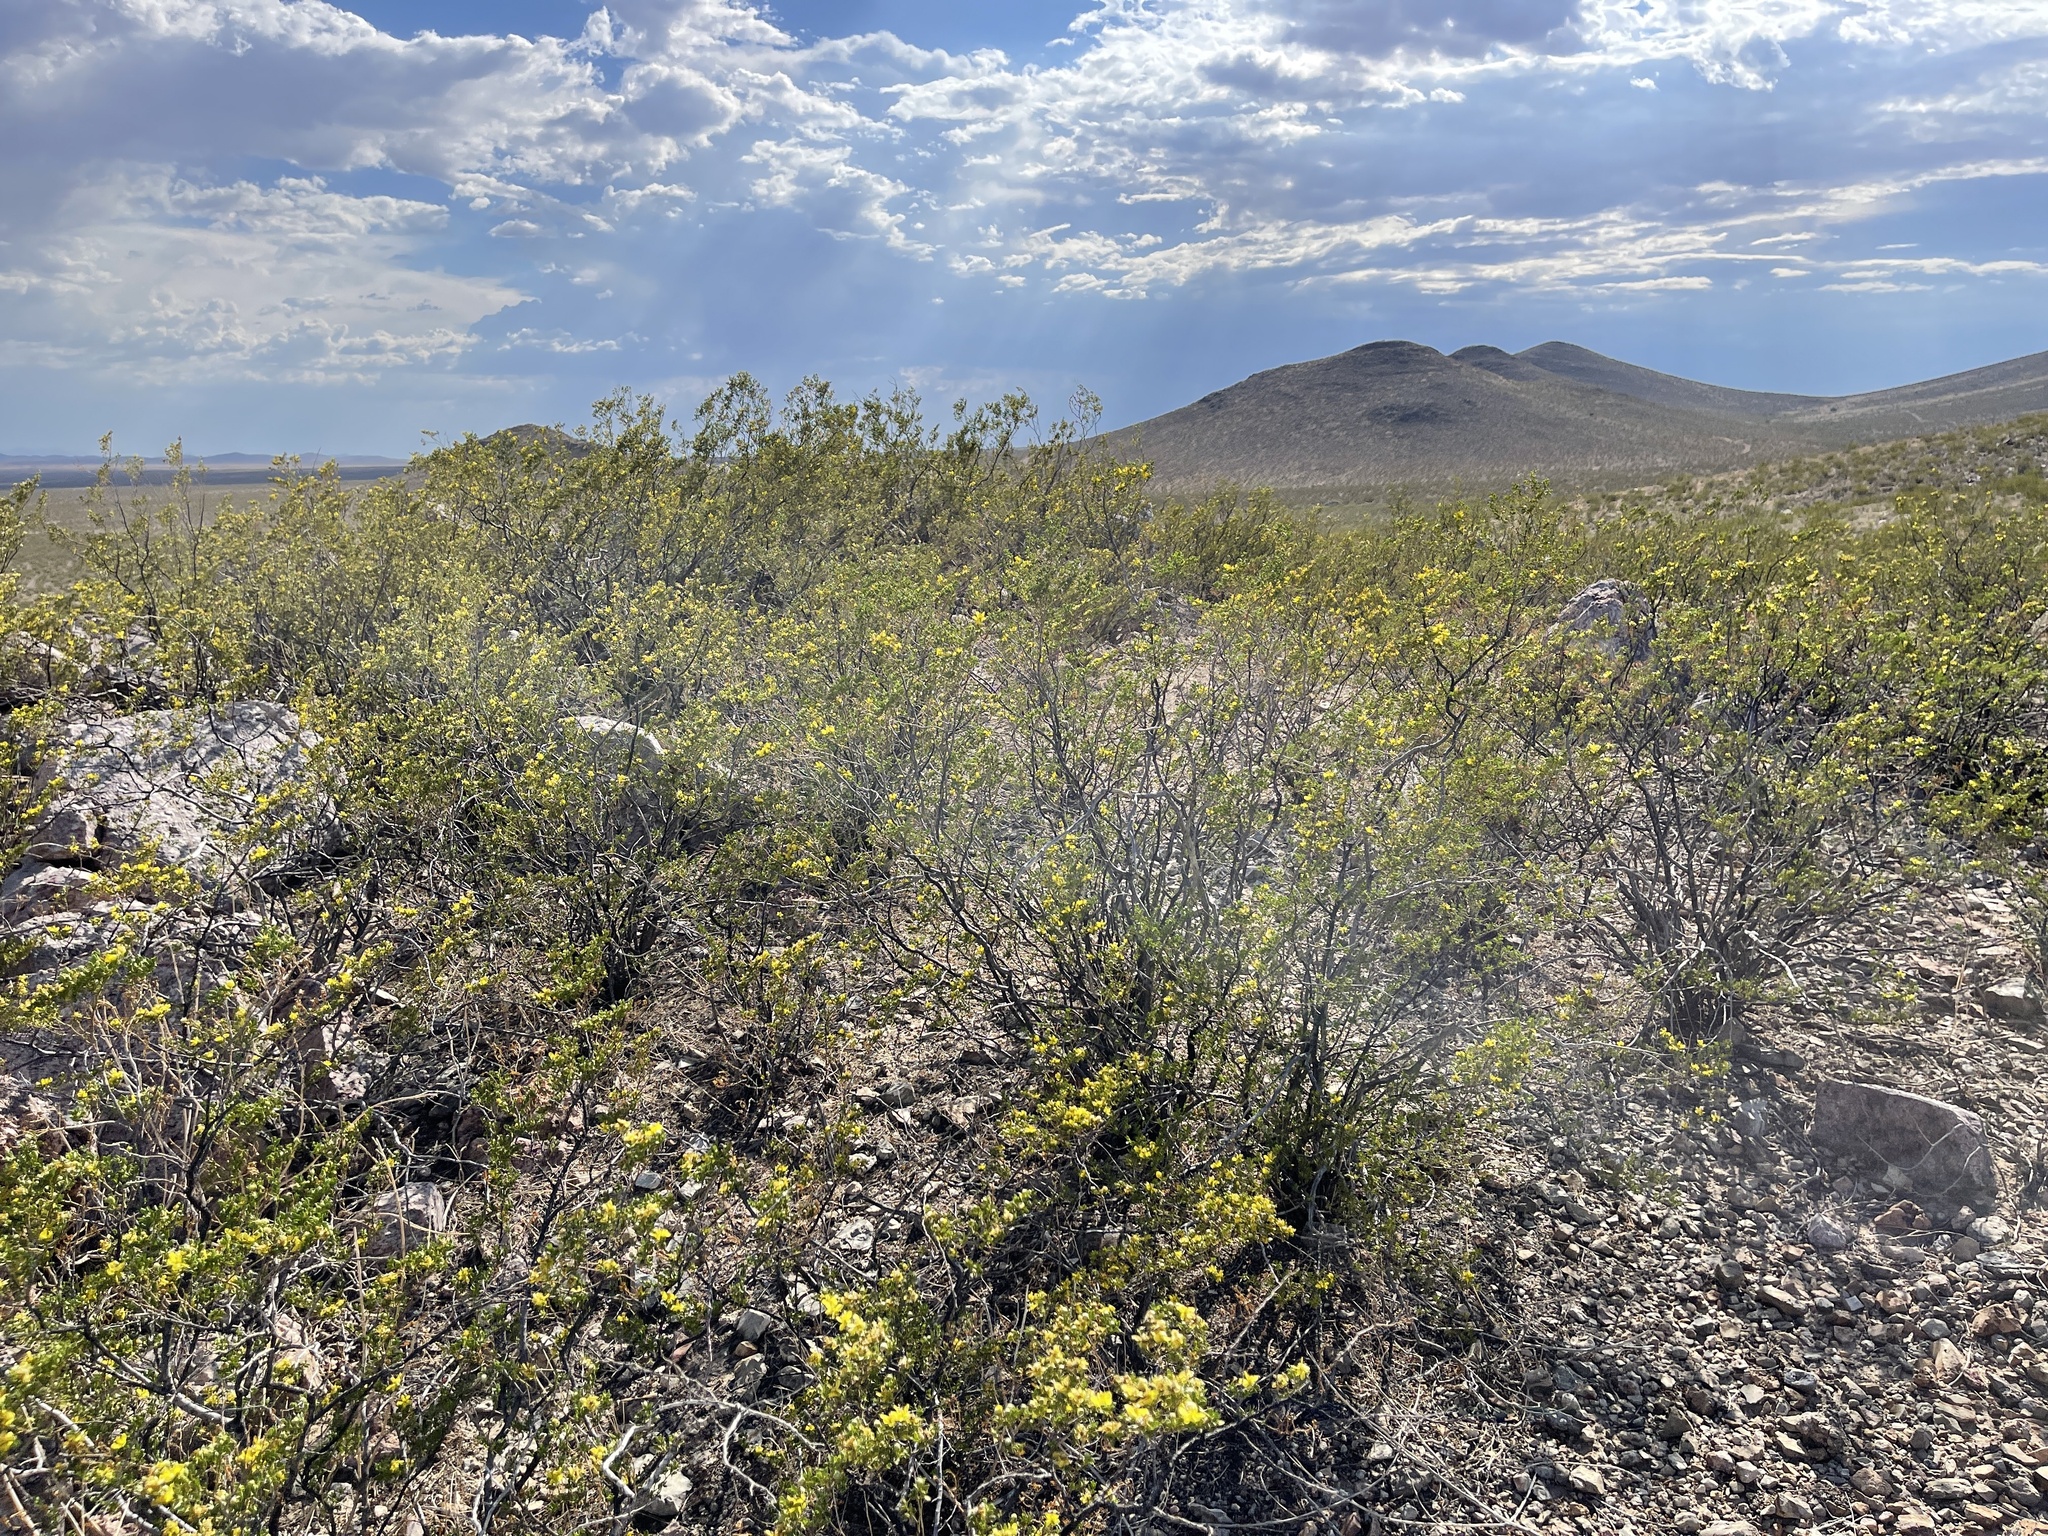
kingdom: Plantae
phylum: Tracheophyta
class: Magnoliopsida
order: Zygophyllales
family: Zygophyllaceae
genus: Larrea
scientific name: Larrea tridentata
